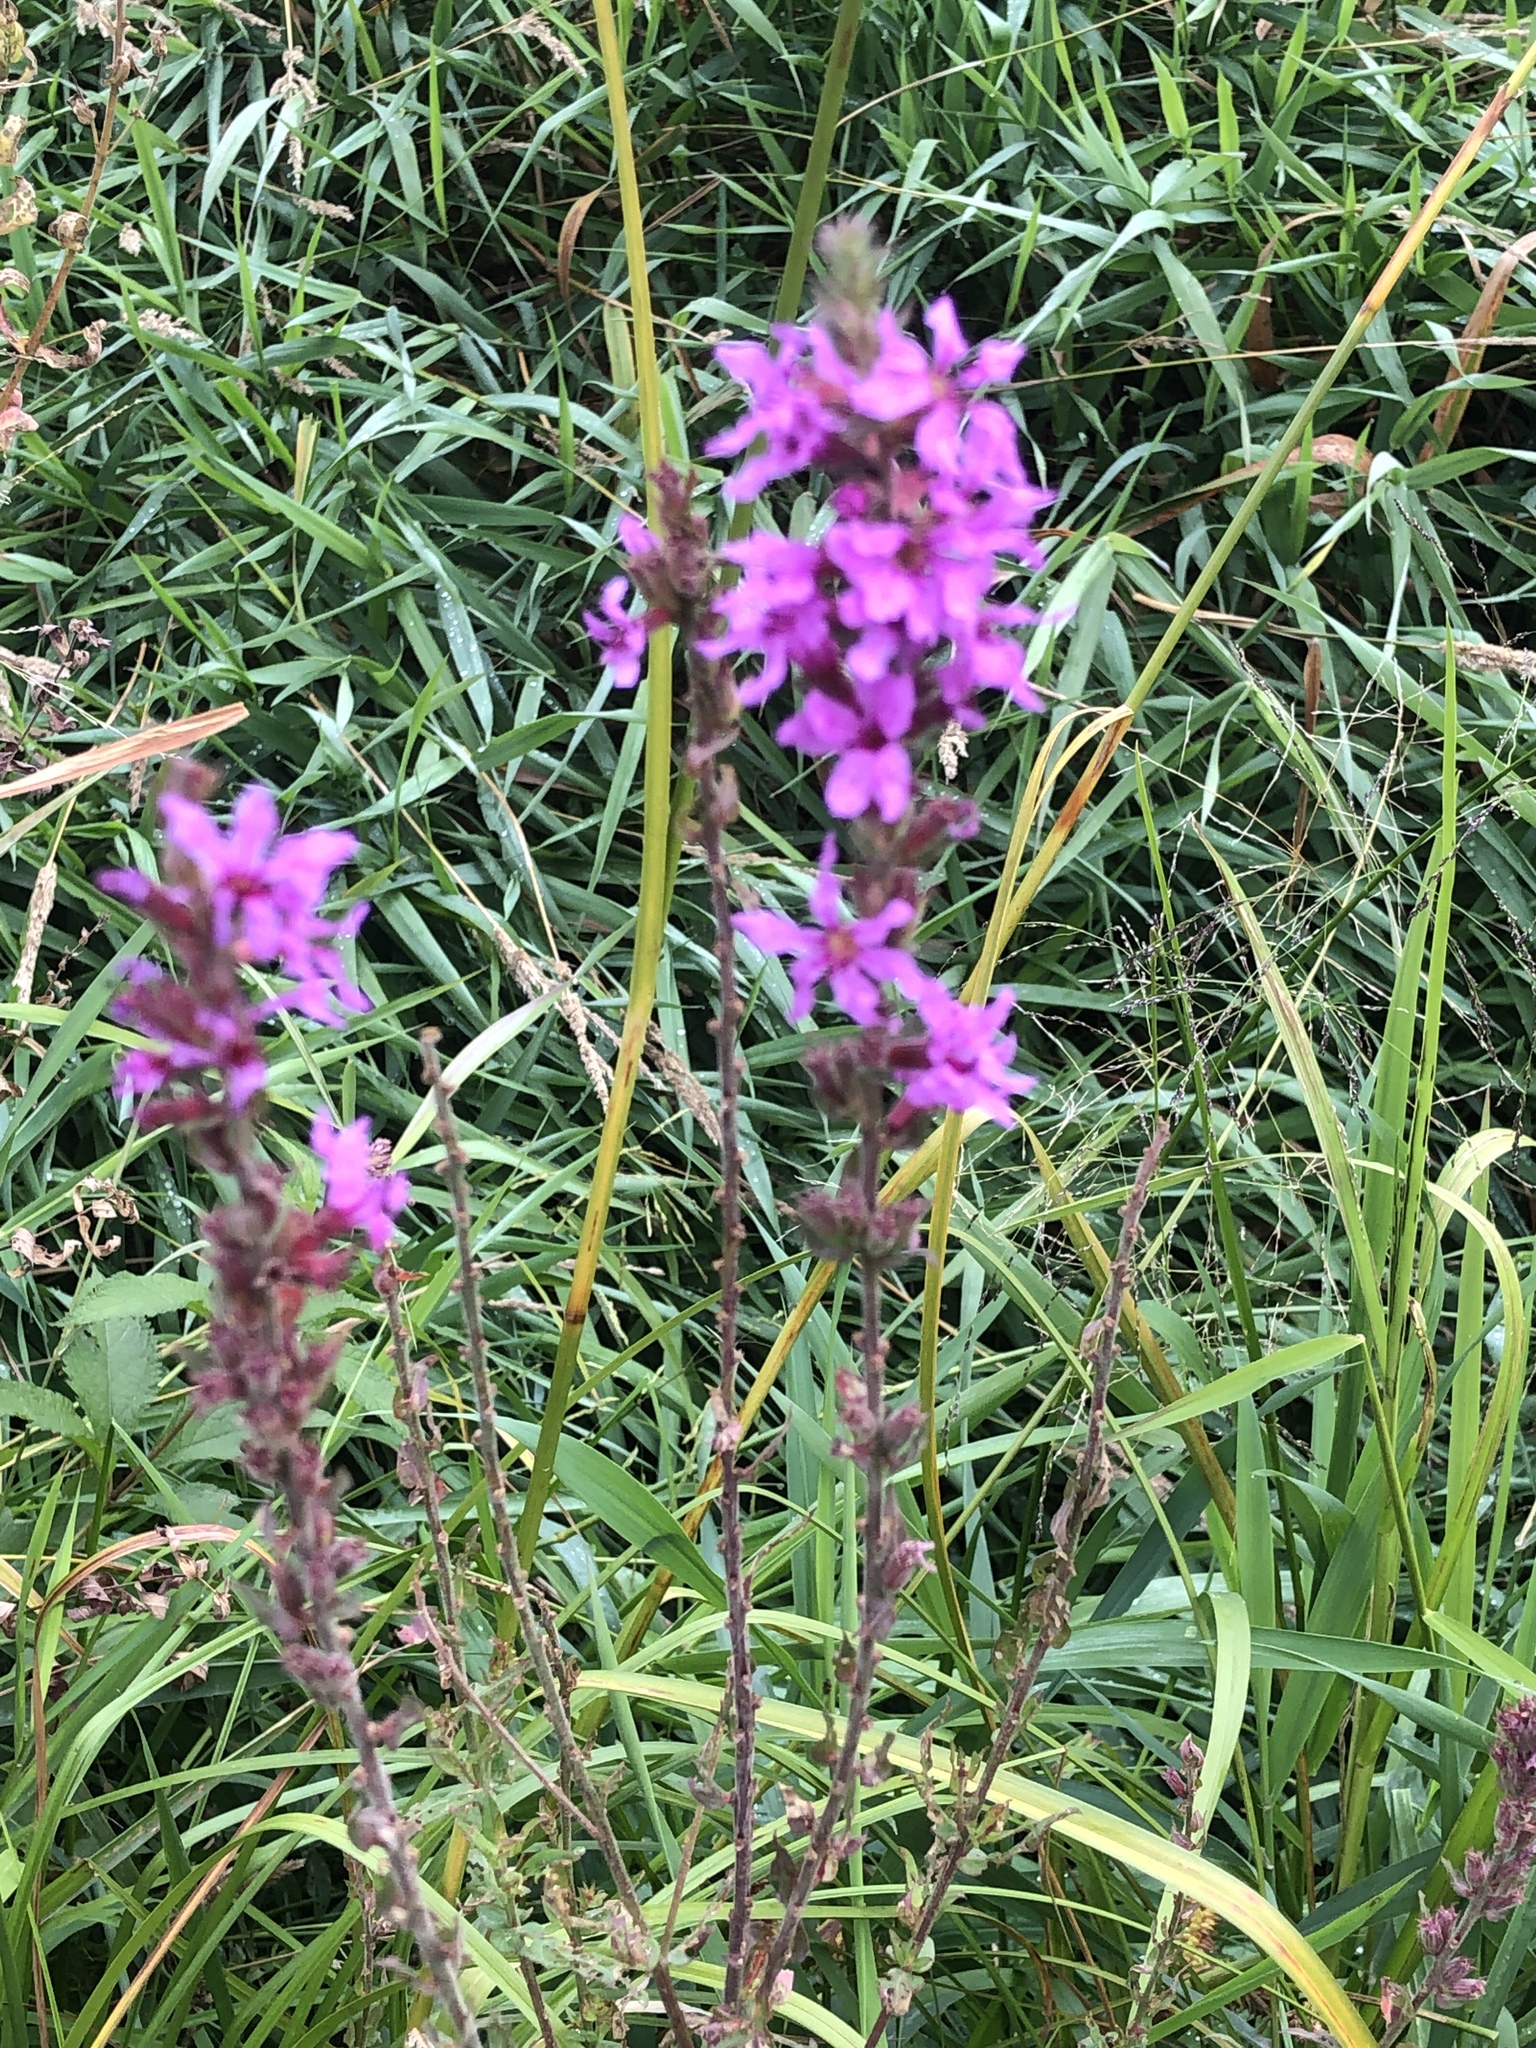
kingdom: Plantae
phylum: Tracheophyta
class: Magnoliopsida
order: Myrtales
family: Lythraceae
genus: Lythrum
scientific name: Lythrum salicaria
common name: Purple loosestrife
